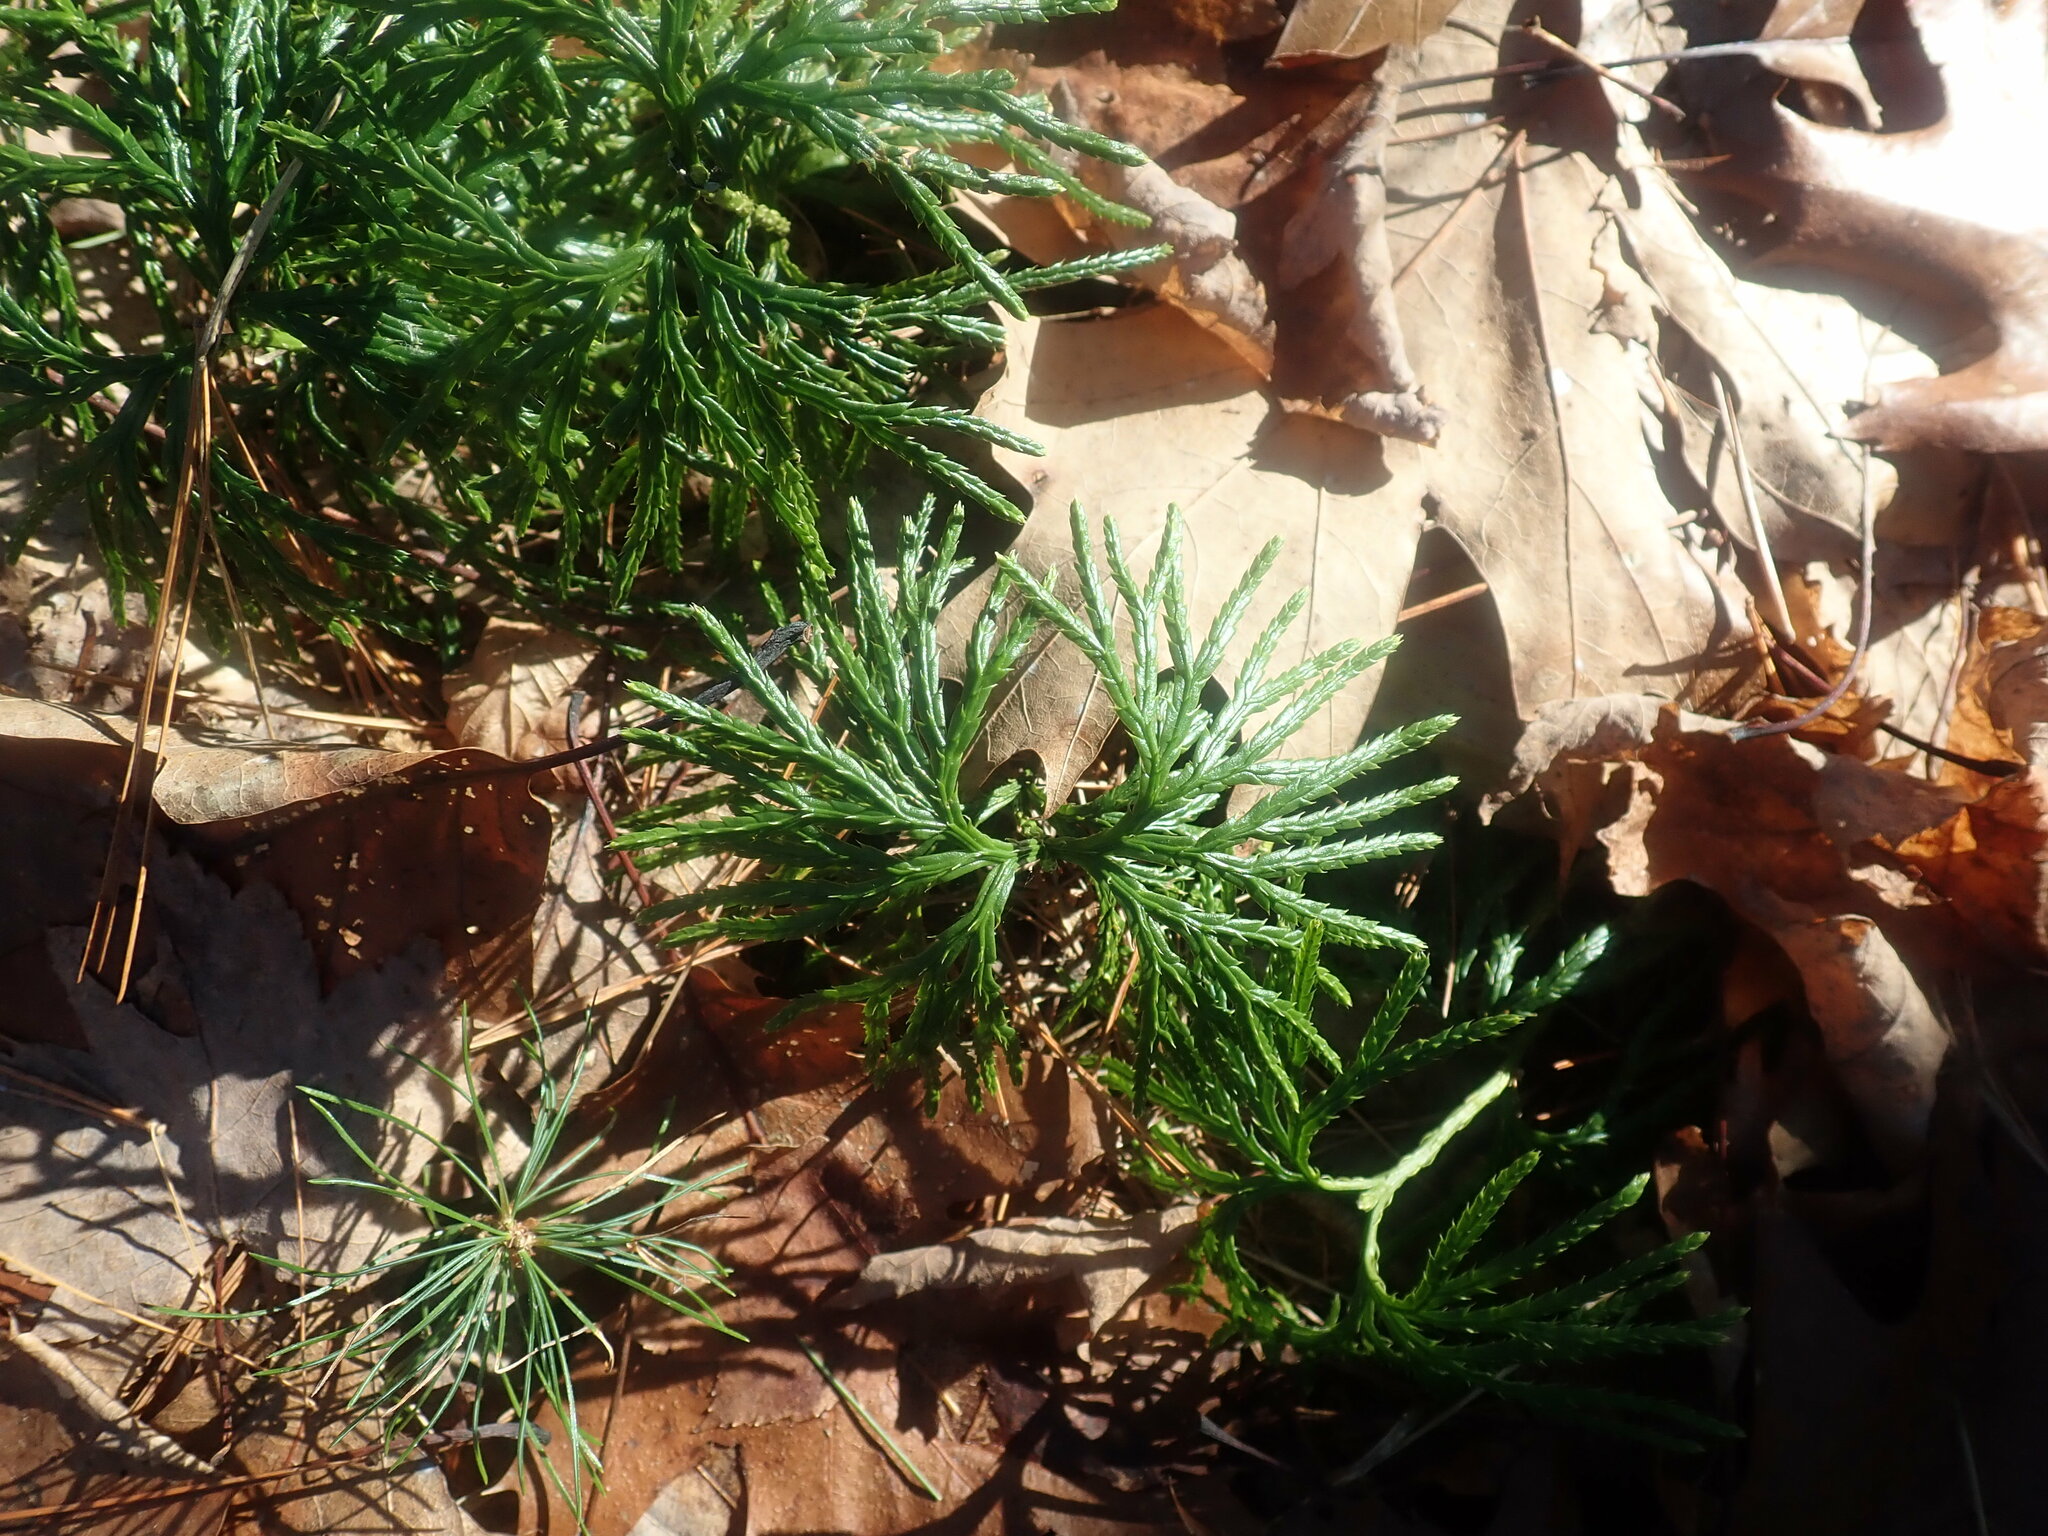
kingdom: Plantae
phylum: Tracheophyta
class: Lycopodiopsida
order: Lycopodiales
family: Lycopodiaceae
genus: Diphasiastrum
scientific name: Diphasiastrum digitatum
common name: Southern running-pine
